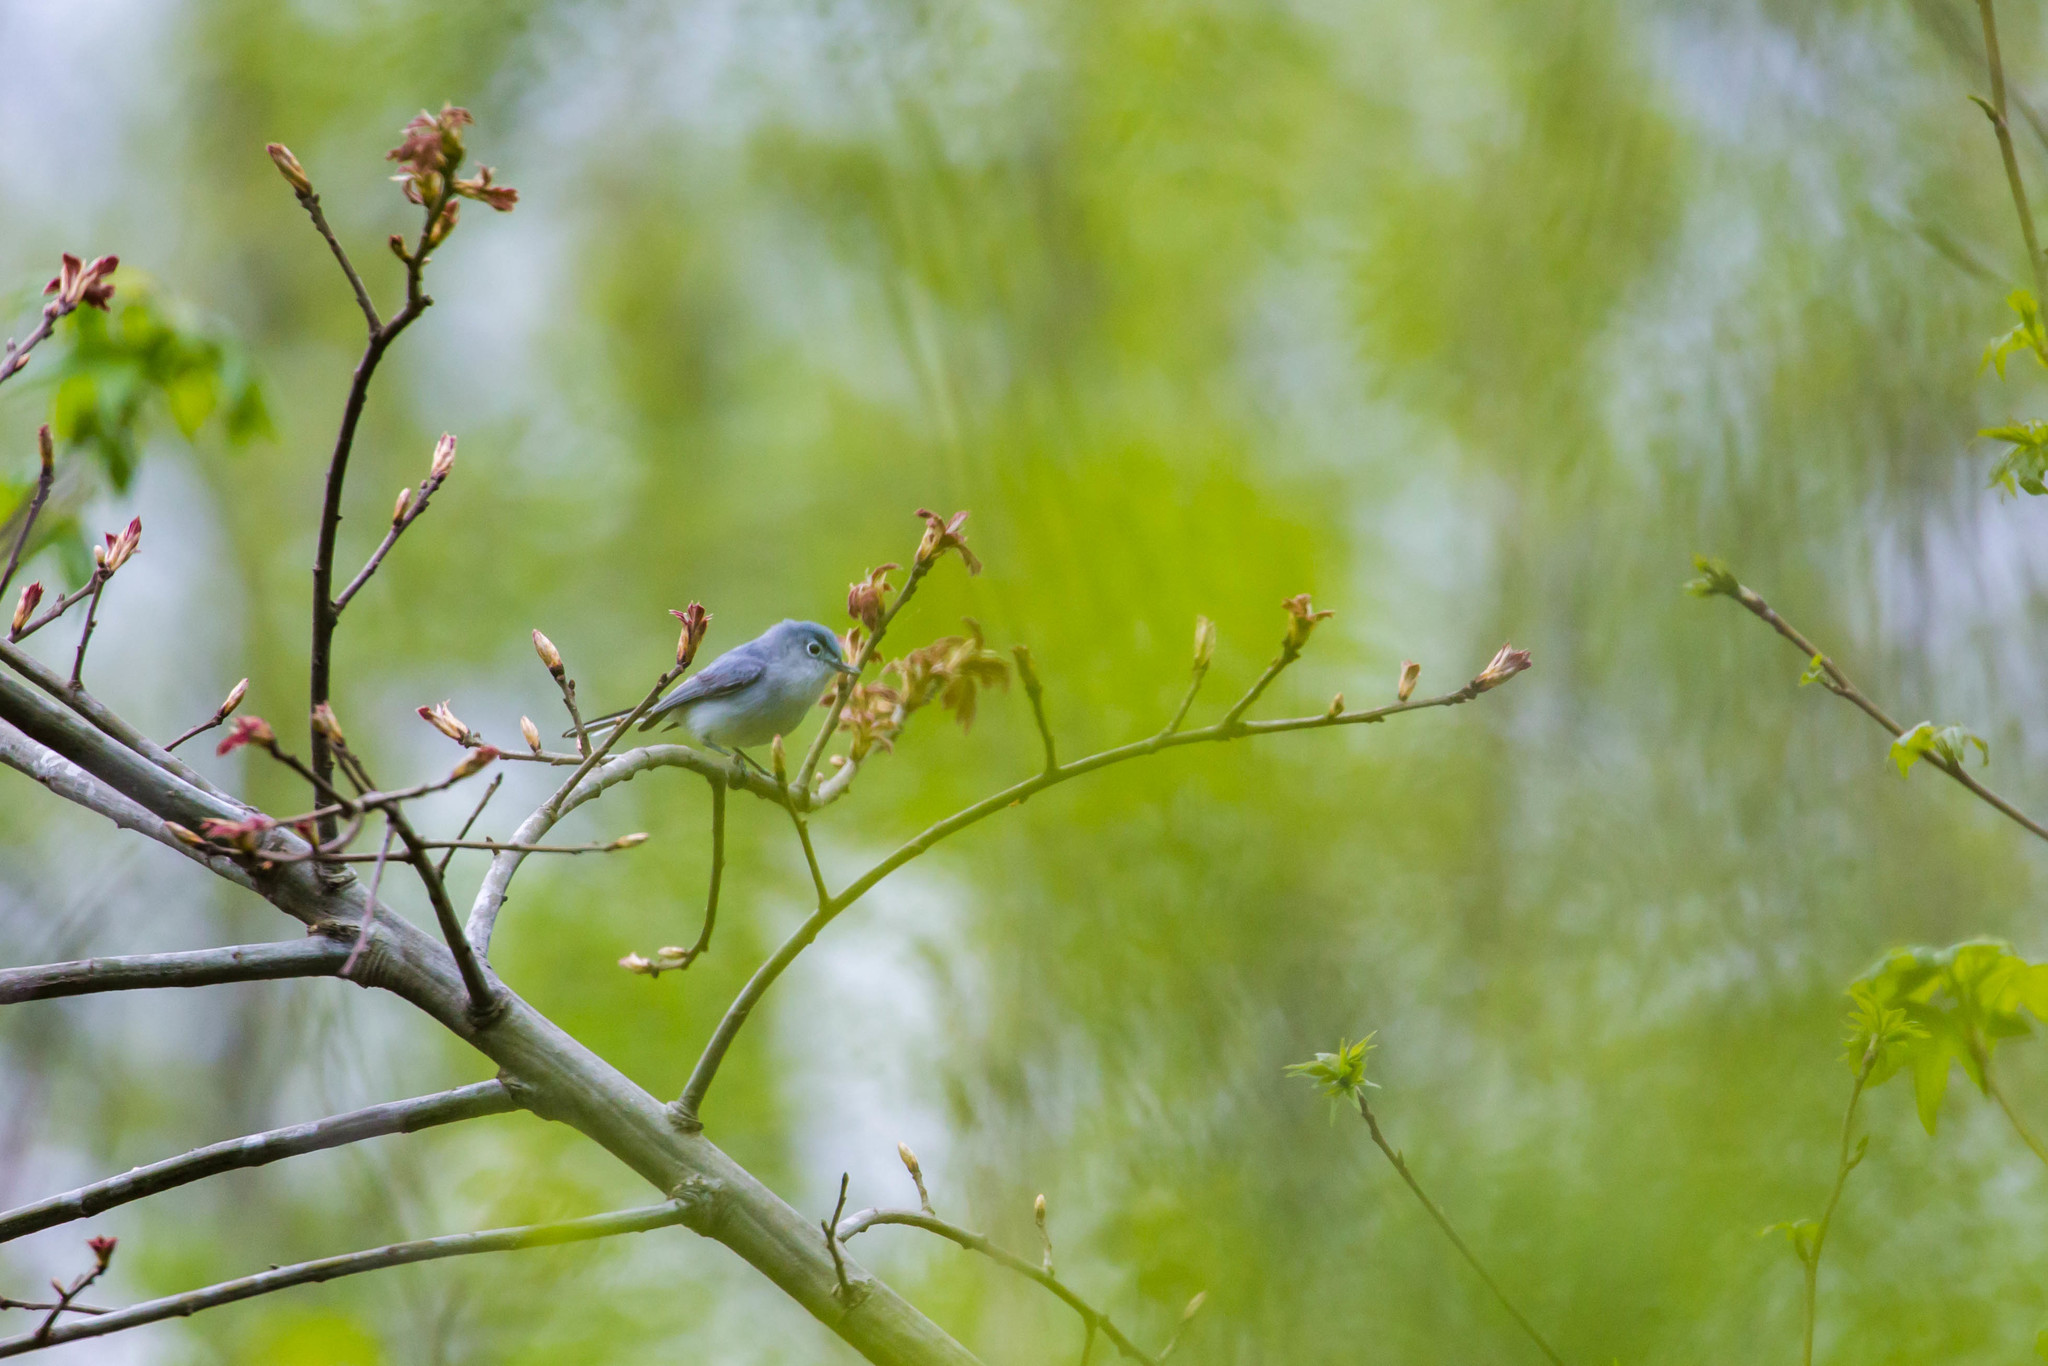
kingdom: Animalia
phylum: Chordata
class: Aves
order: Passeriformes
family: Polioptilidae
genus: Polioptila
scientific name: Polioptila caerulea
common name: Blue-gray gnatcatcher
